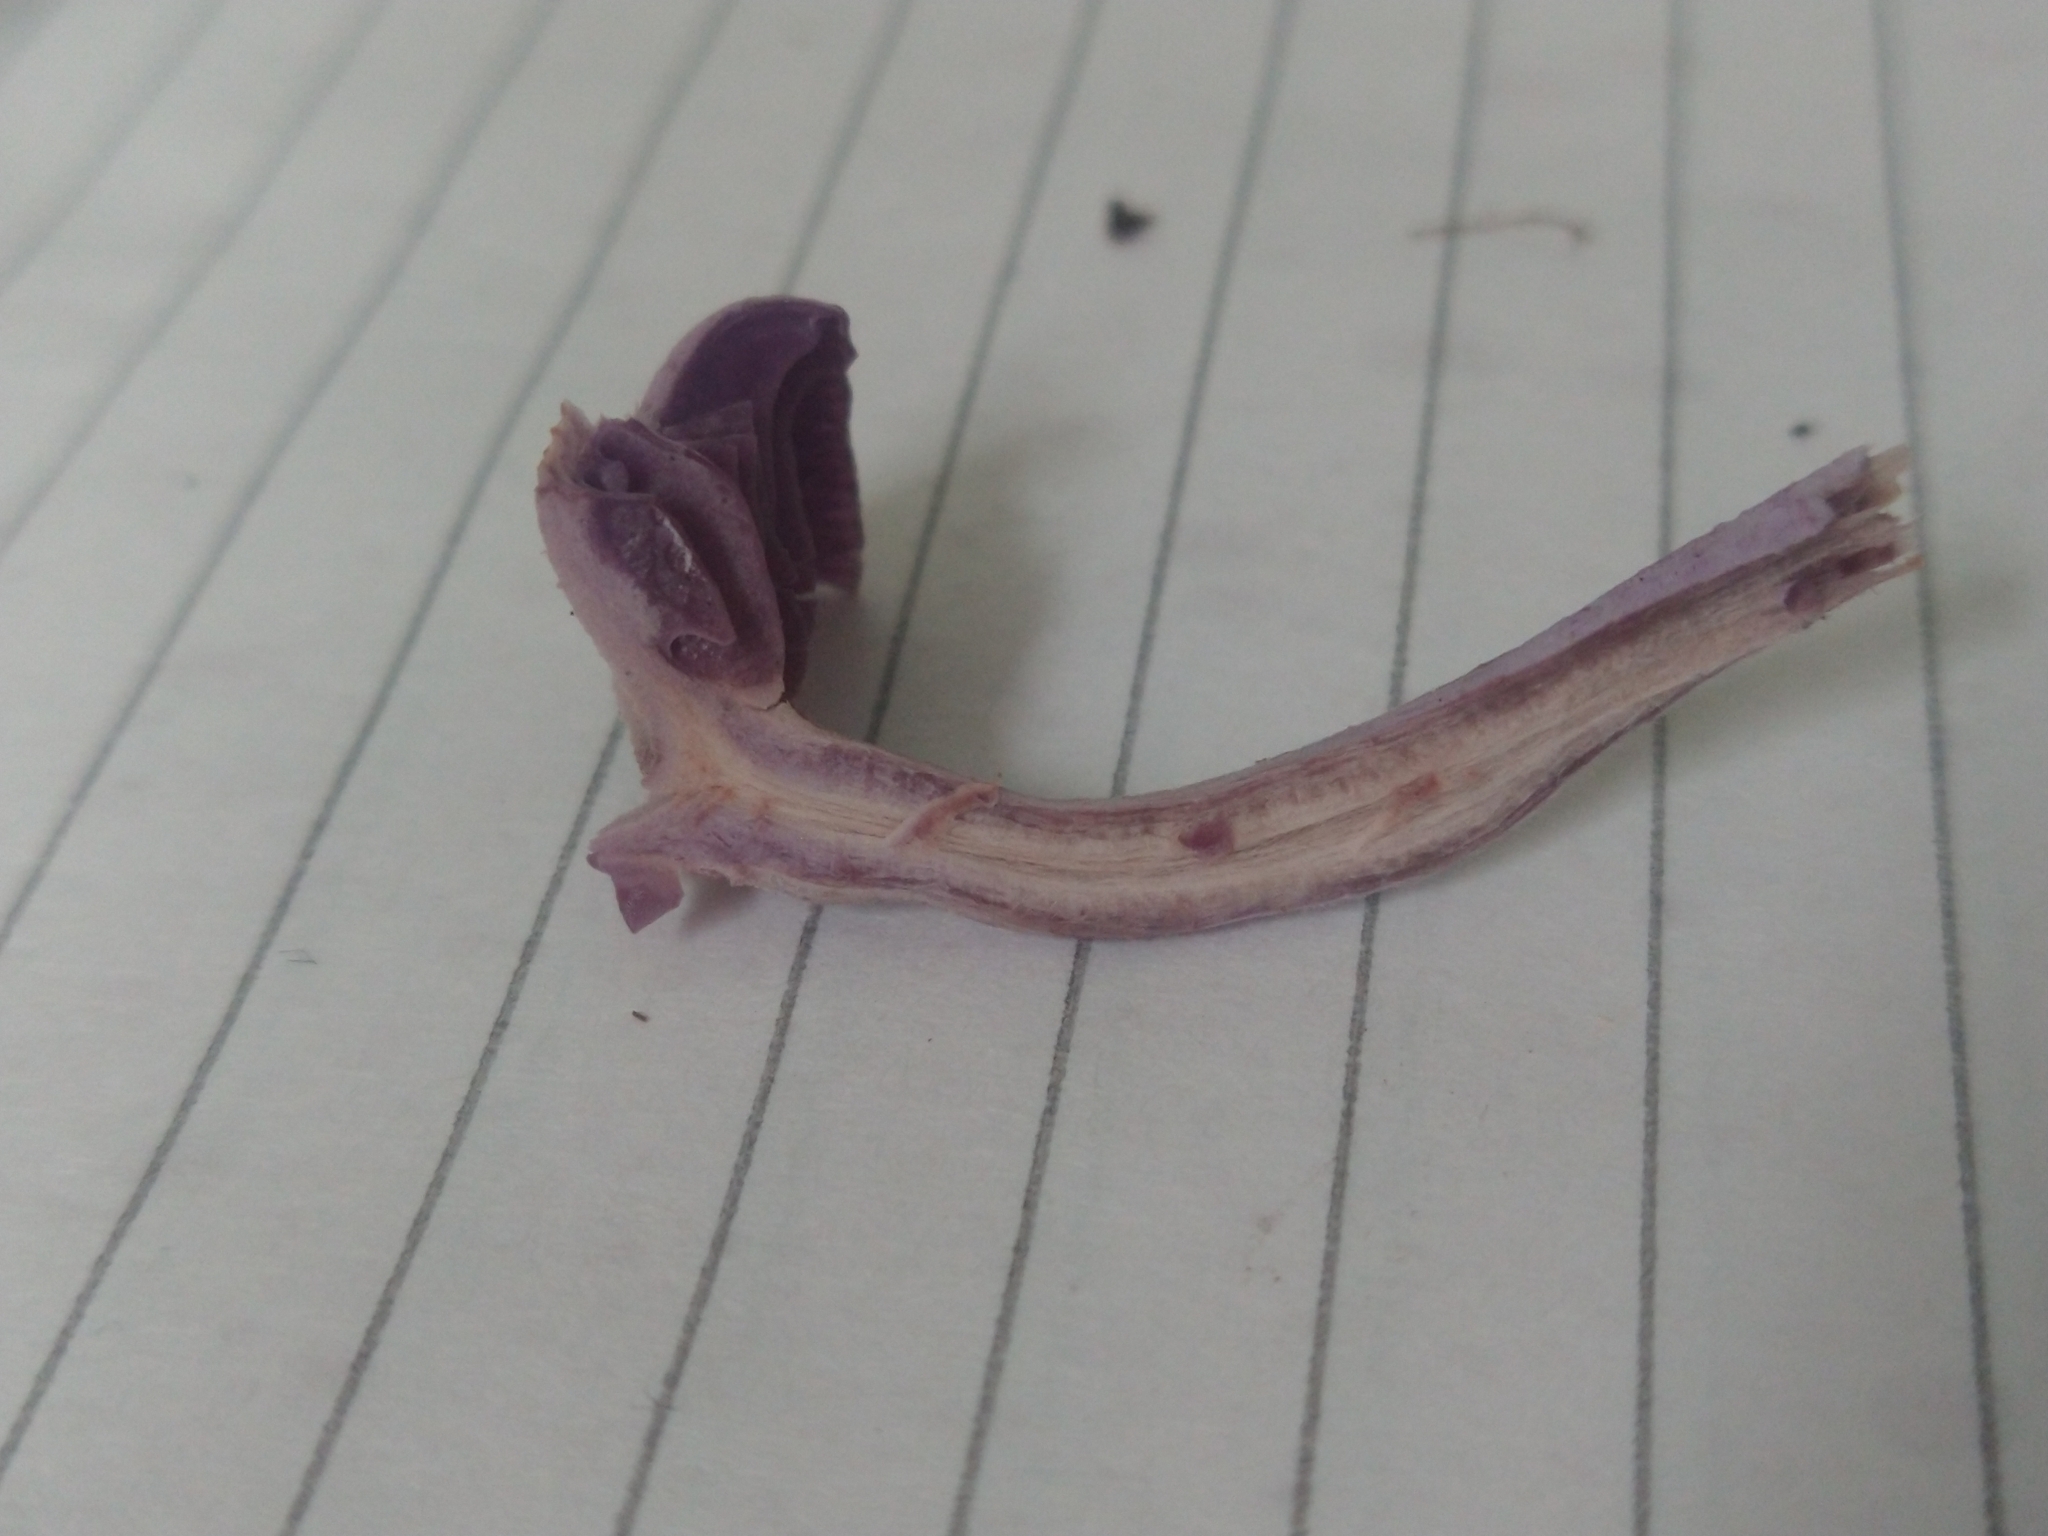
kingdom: Fungi
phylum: Basidiomycota
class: Agaricomycetes
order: Agaricales
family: Hydnangiaceae
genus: Laccaria
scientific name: Laccaria amethystina
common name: Amethyst deceiver
